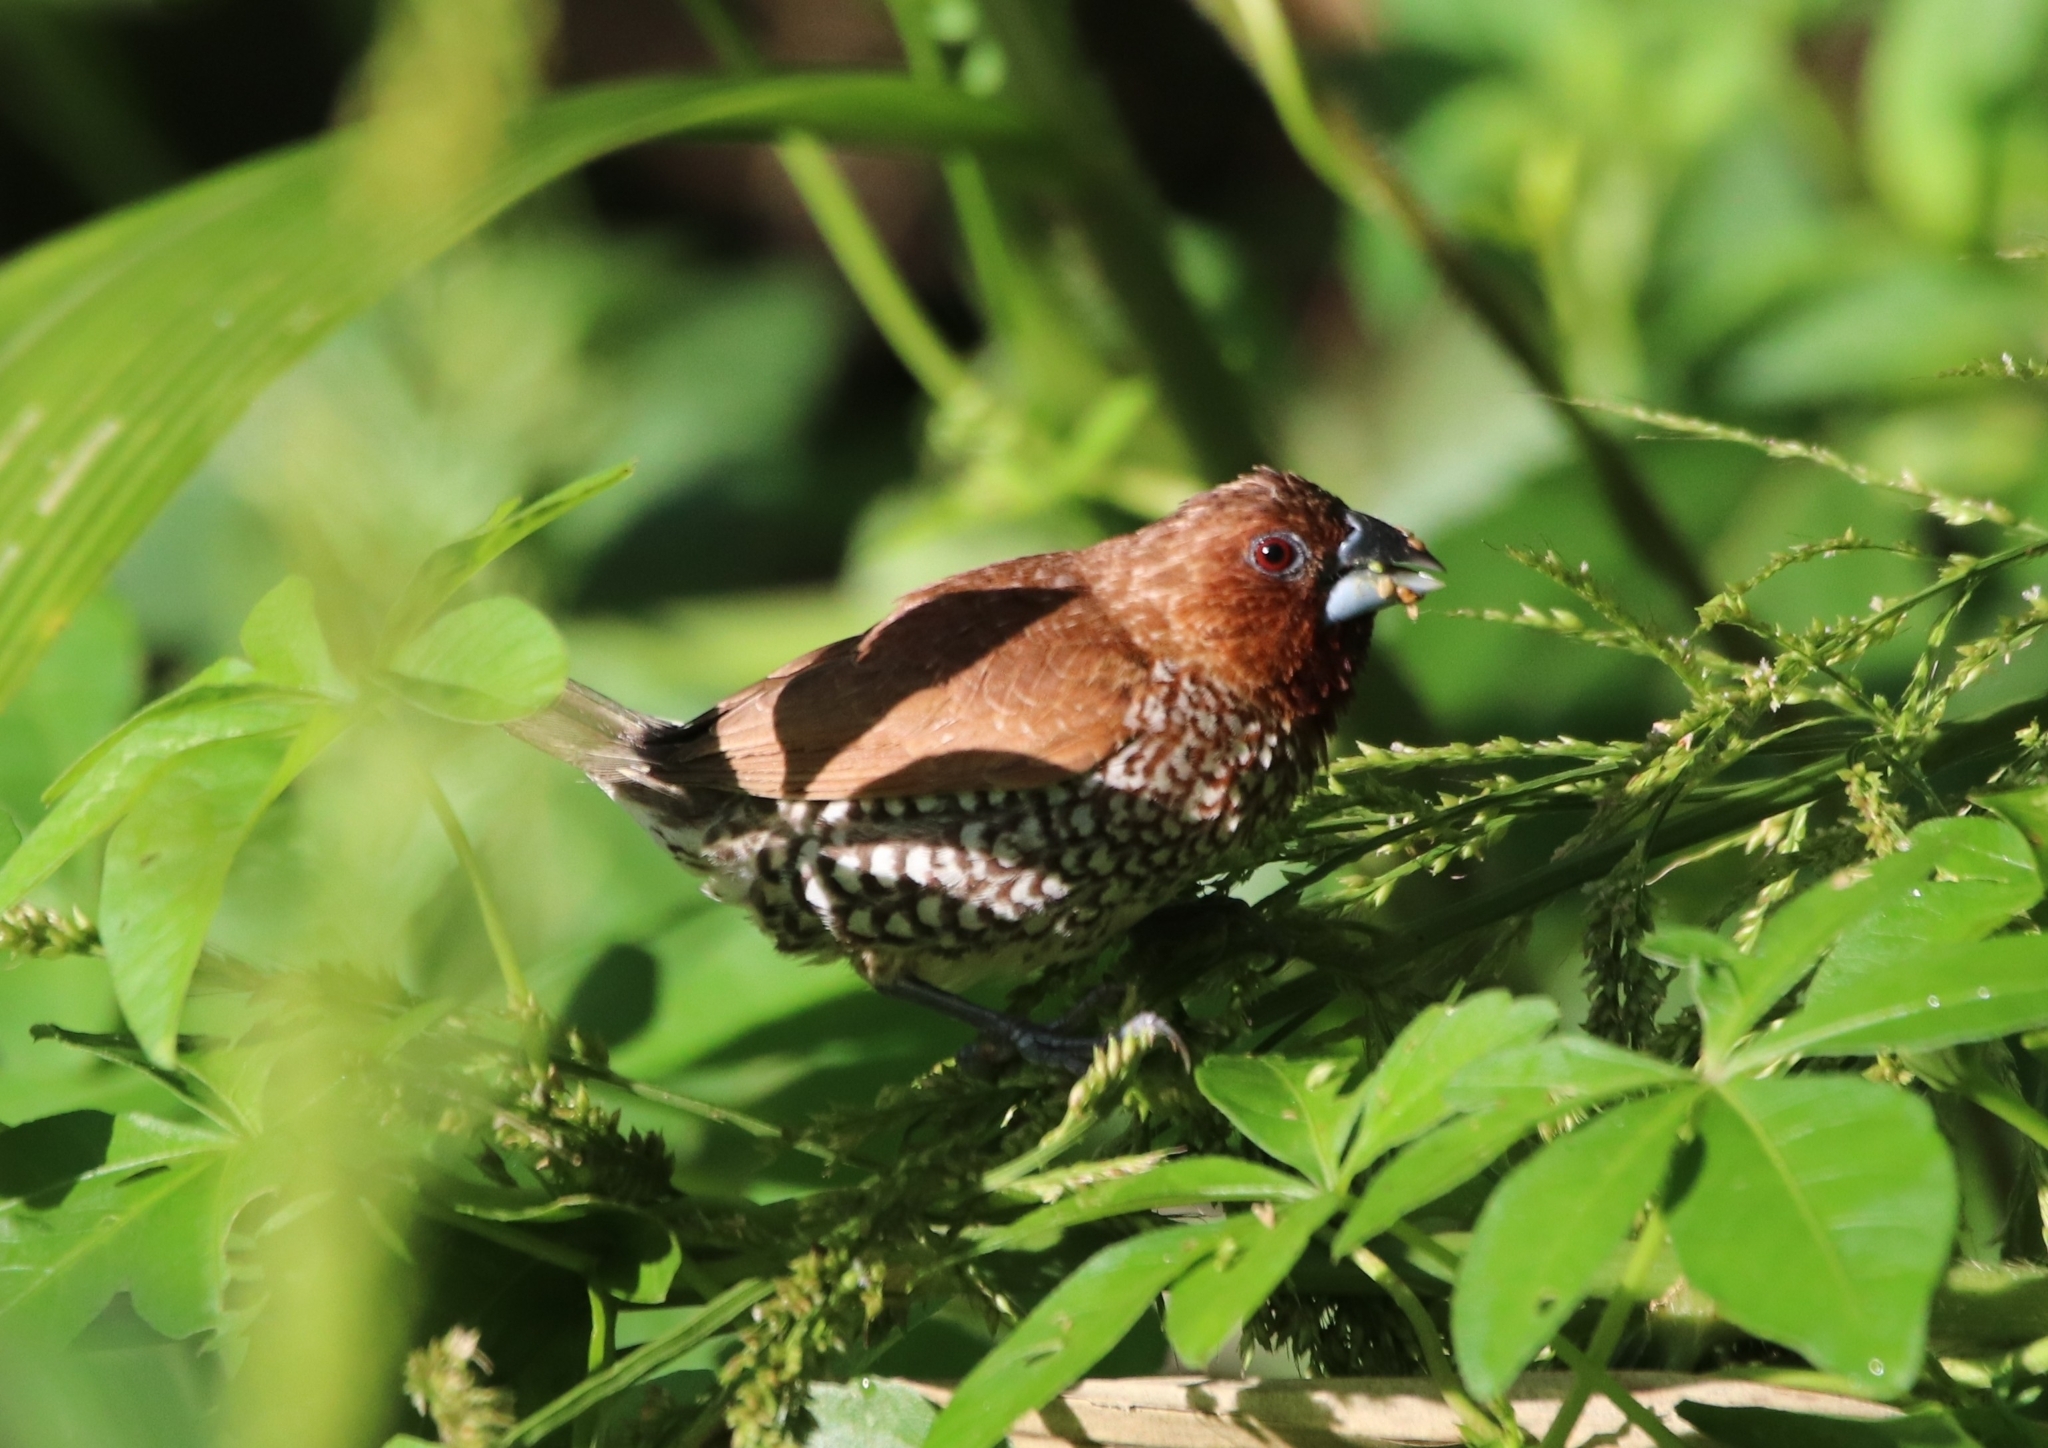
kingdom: Animalia
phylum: Chordata
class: Aves
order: Passeriformes
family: Estrildidae
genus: Lonchura
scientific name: Lonchura punctulata
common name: Scaly-breasted munia
